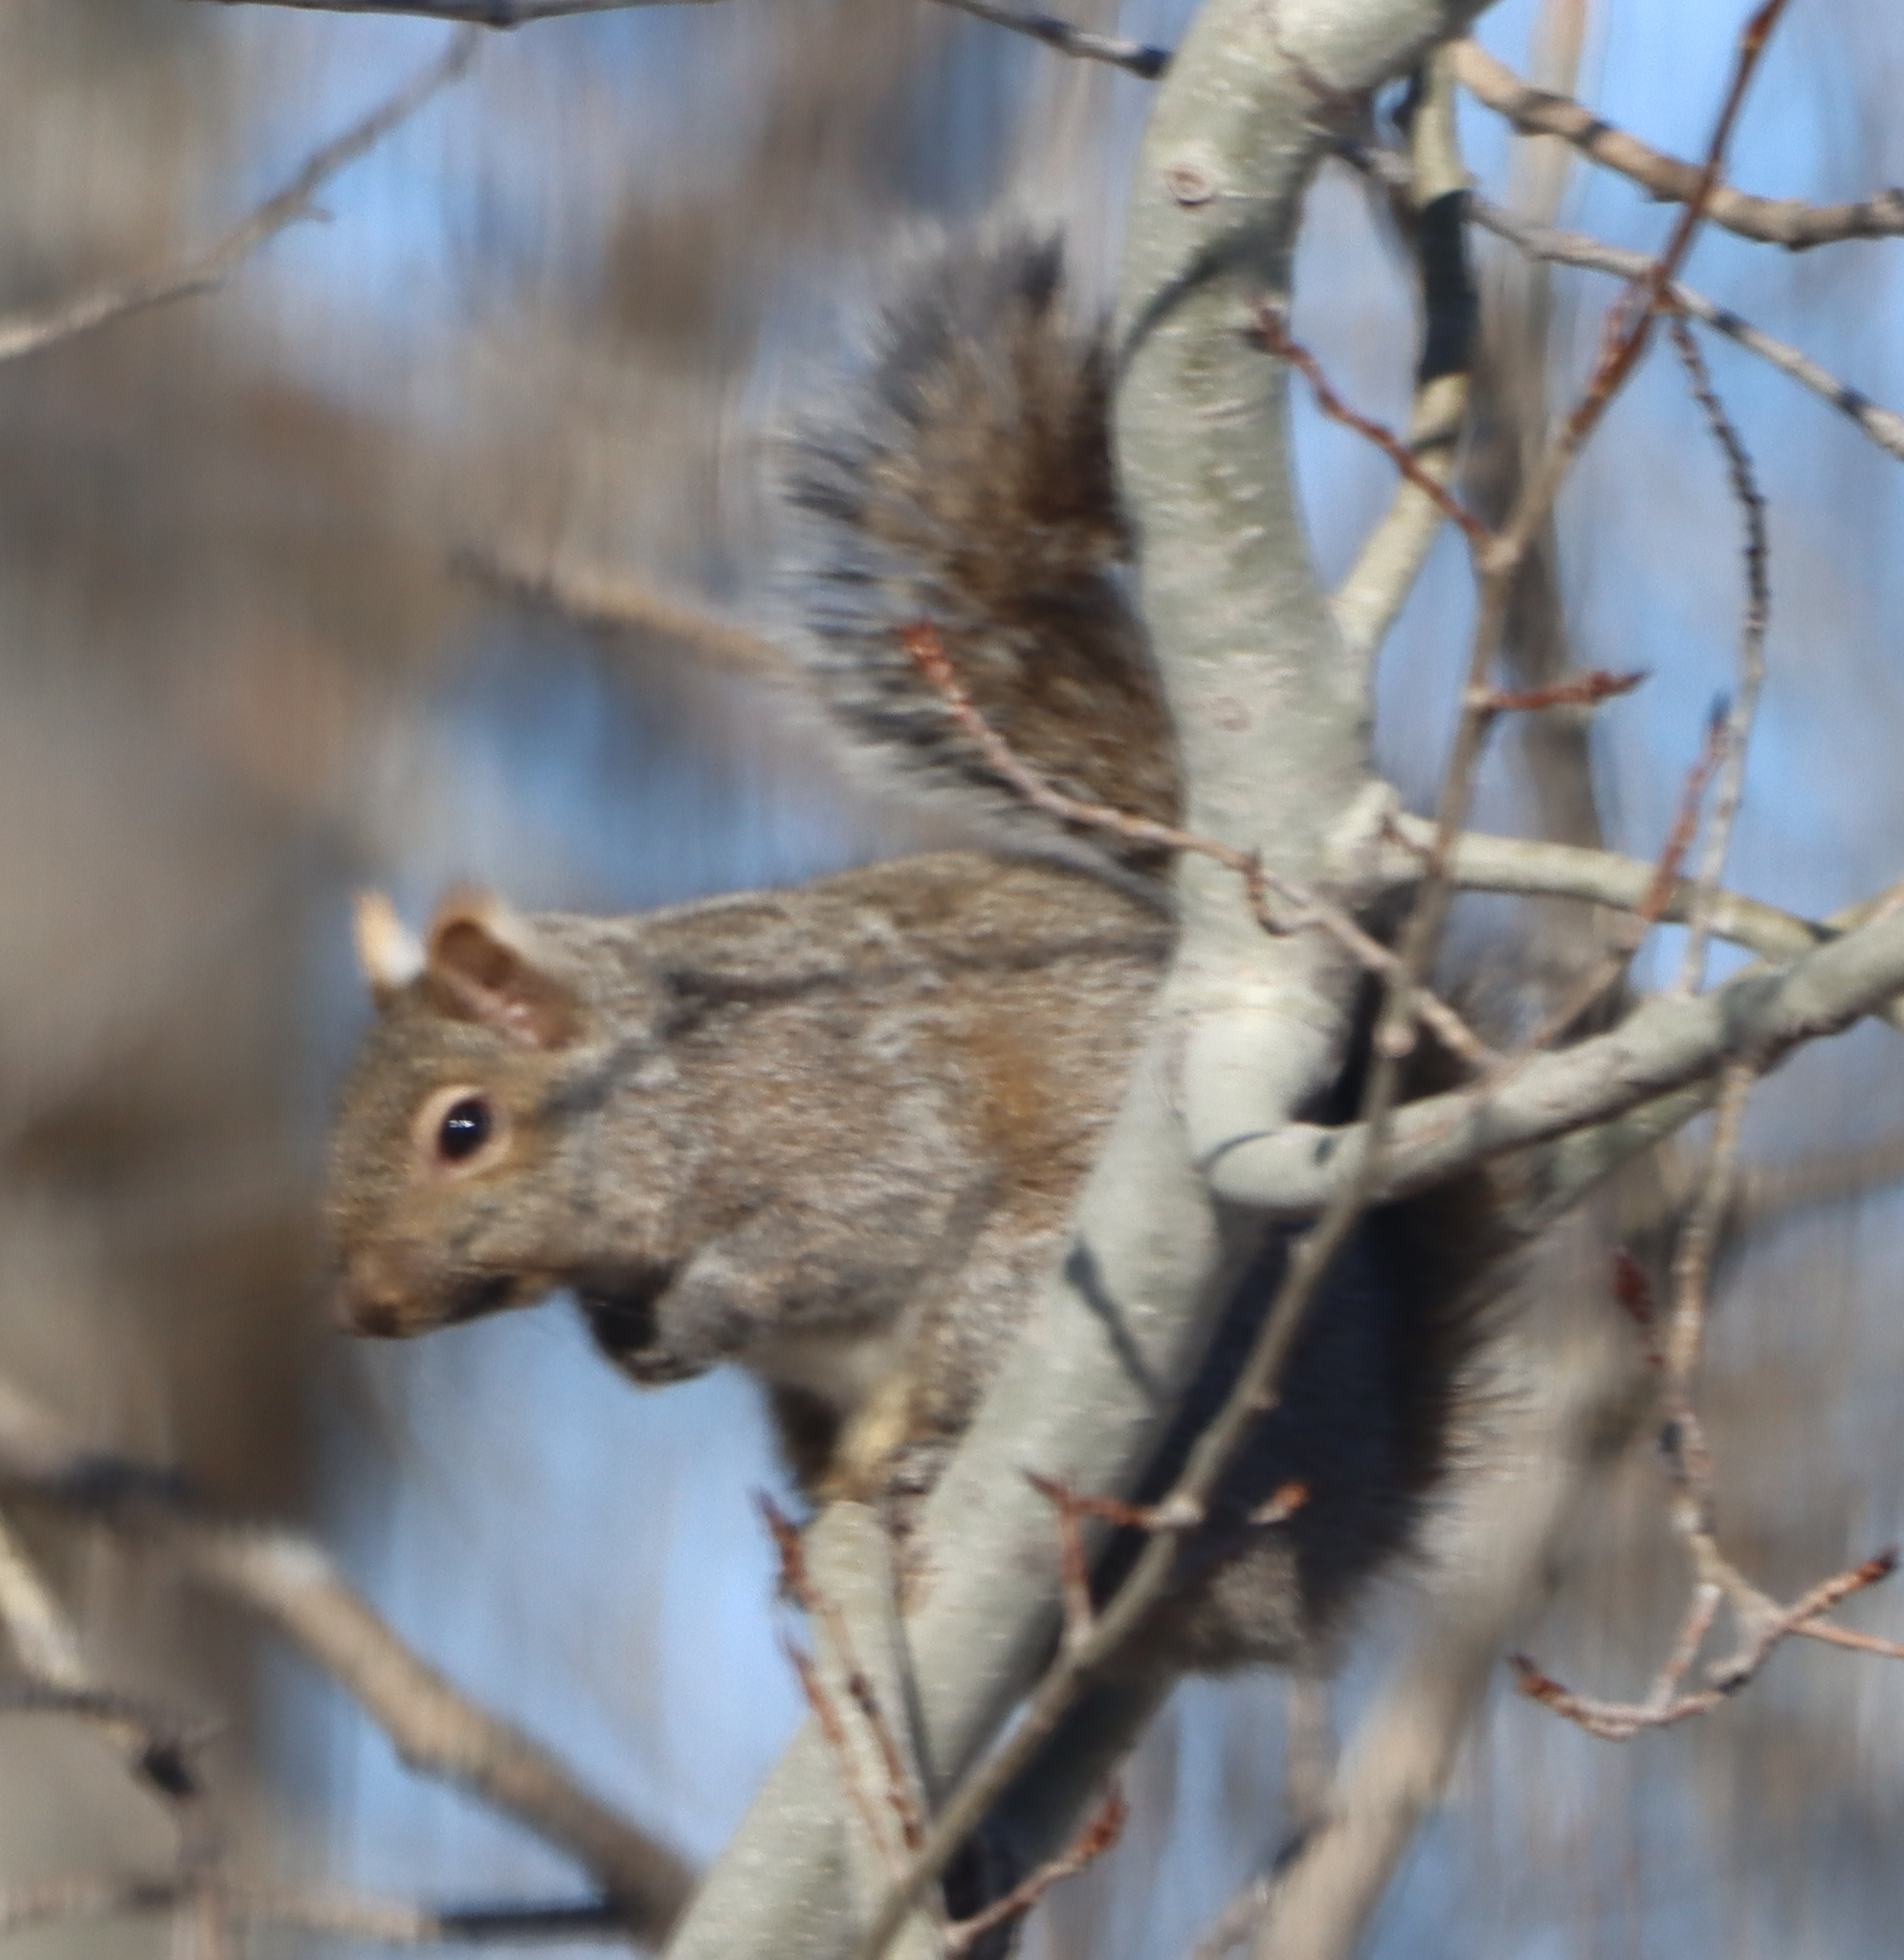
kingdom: Animalia
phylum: Chordata
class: Mammalia
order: Rodentia
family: Sciuridae
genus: Sciurus
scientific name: Sciurus carolinensis
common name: Eastern gray squirrel
